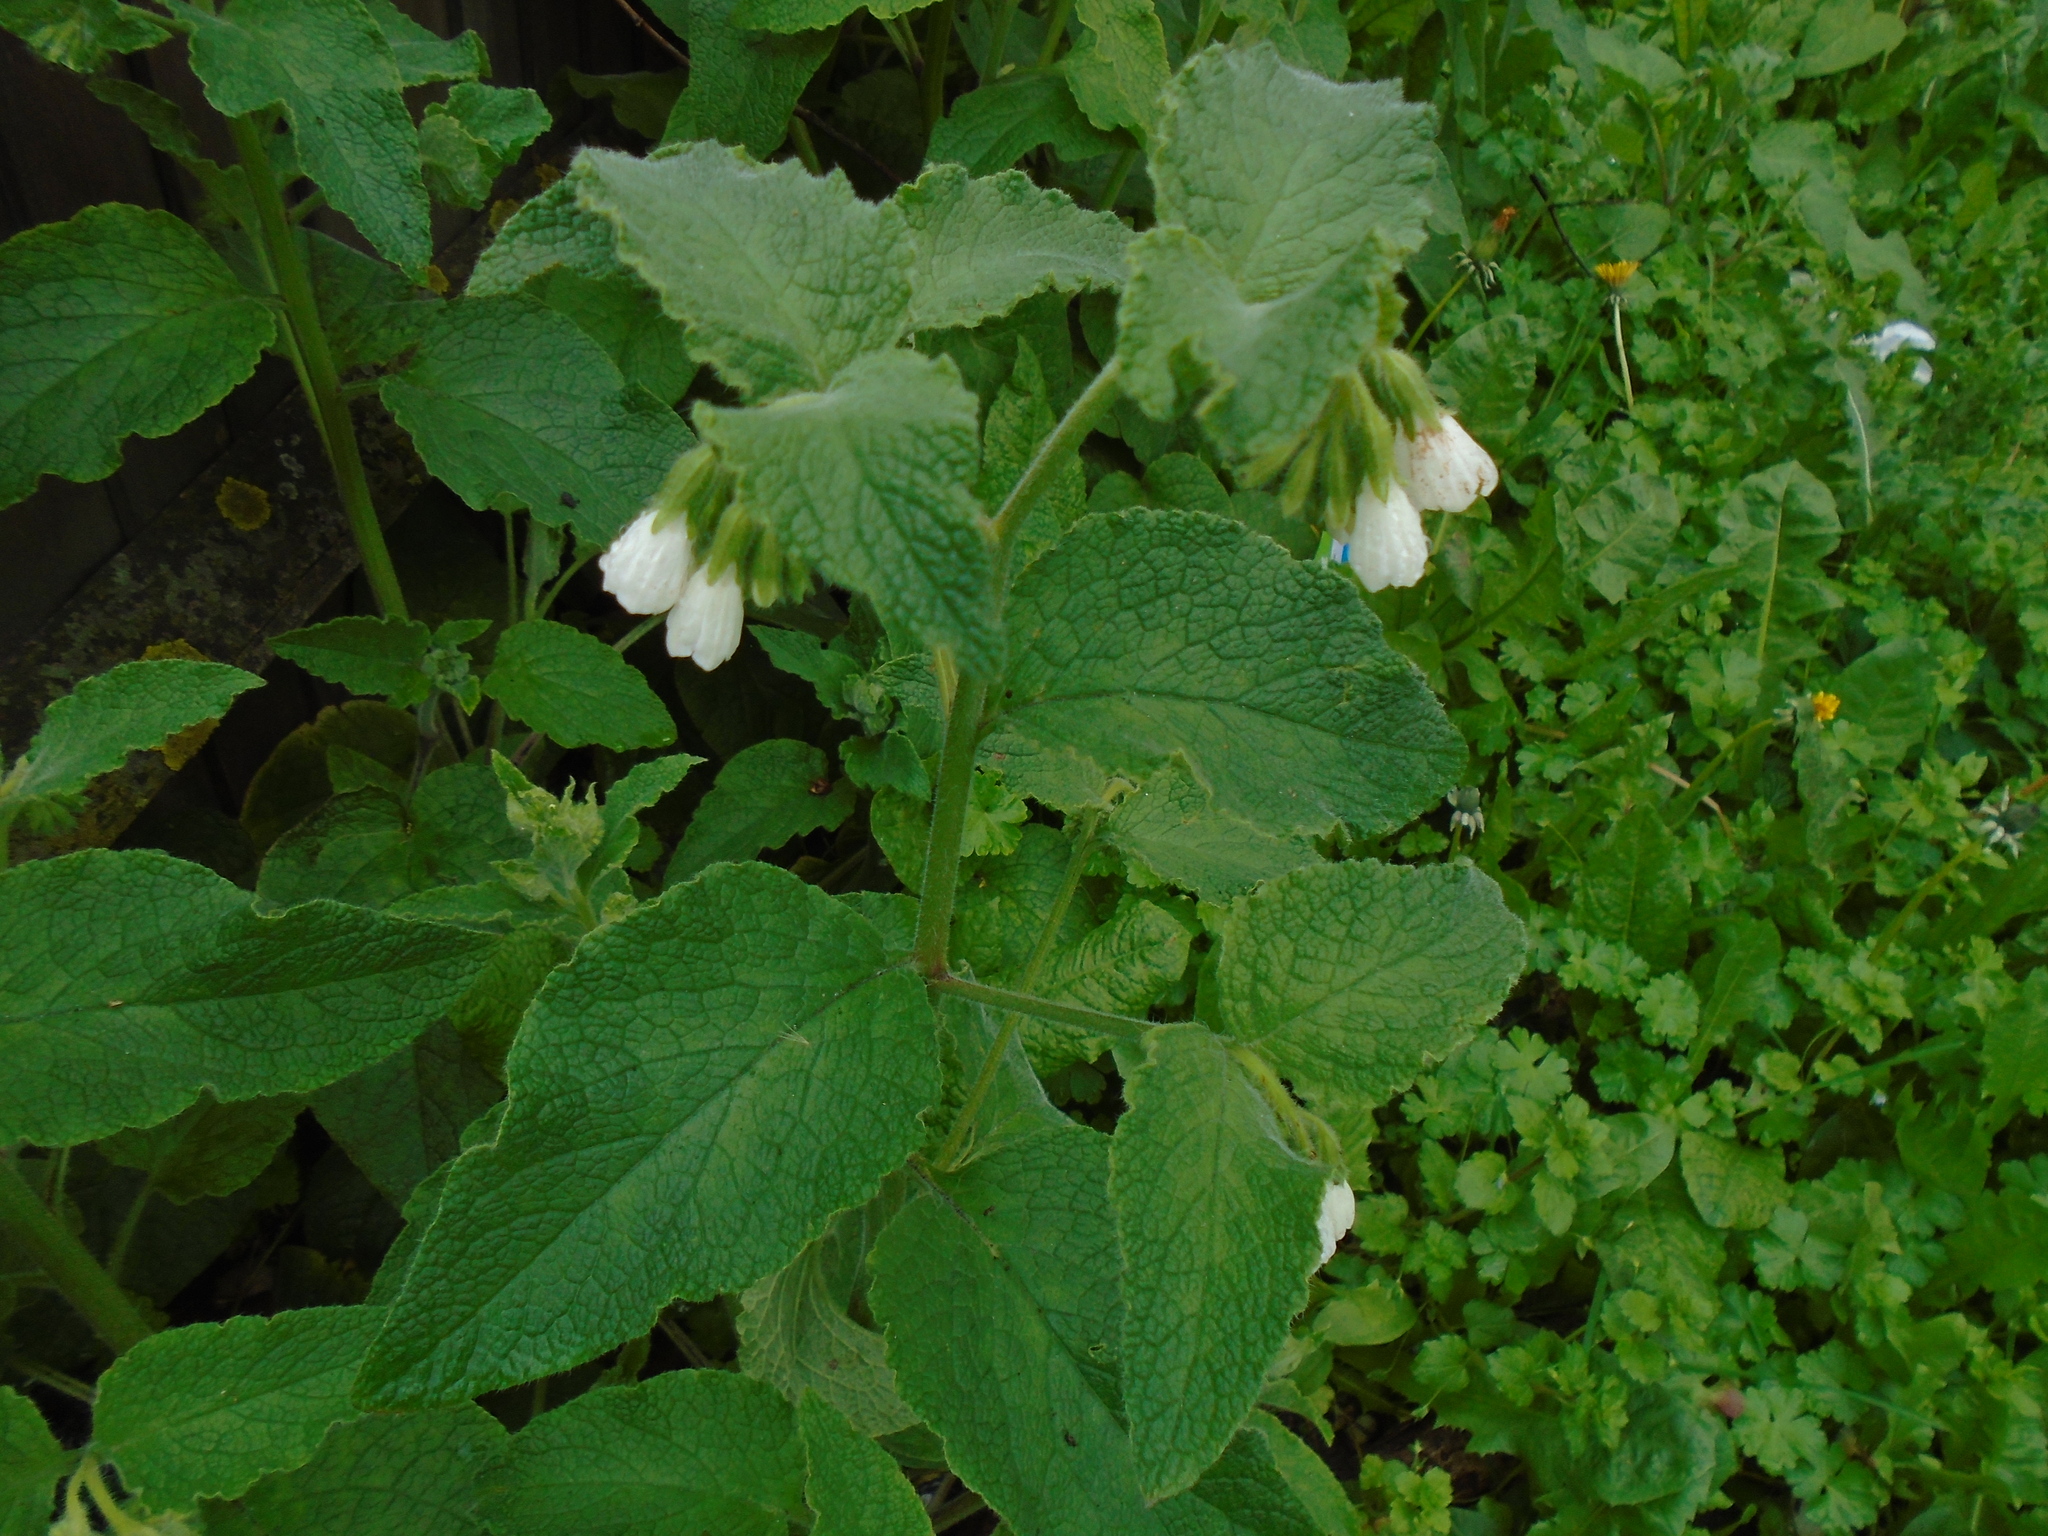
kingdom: Plantae
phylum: Tracheophyta
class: Magnoliopsida
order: Boraginales
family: Boraginaceae
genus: Symphytum
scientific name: Symphytum orientale
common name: White comfrey
